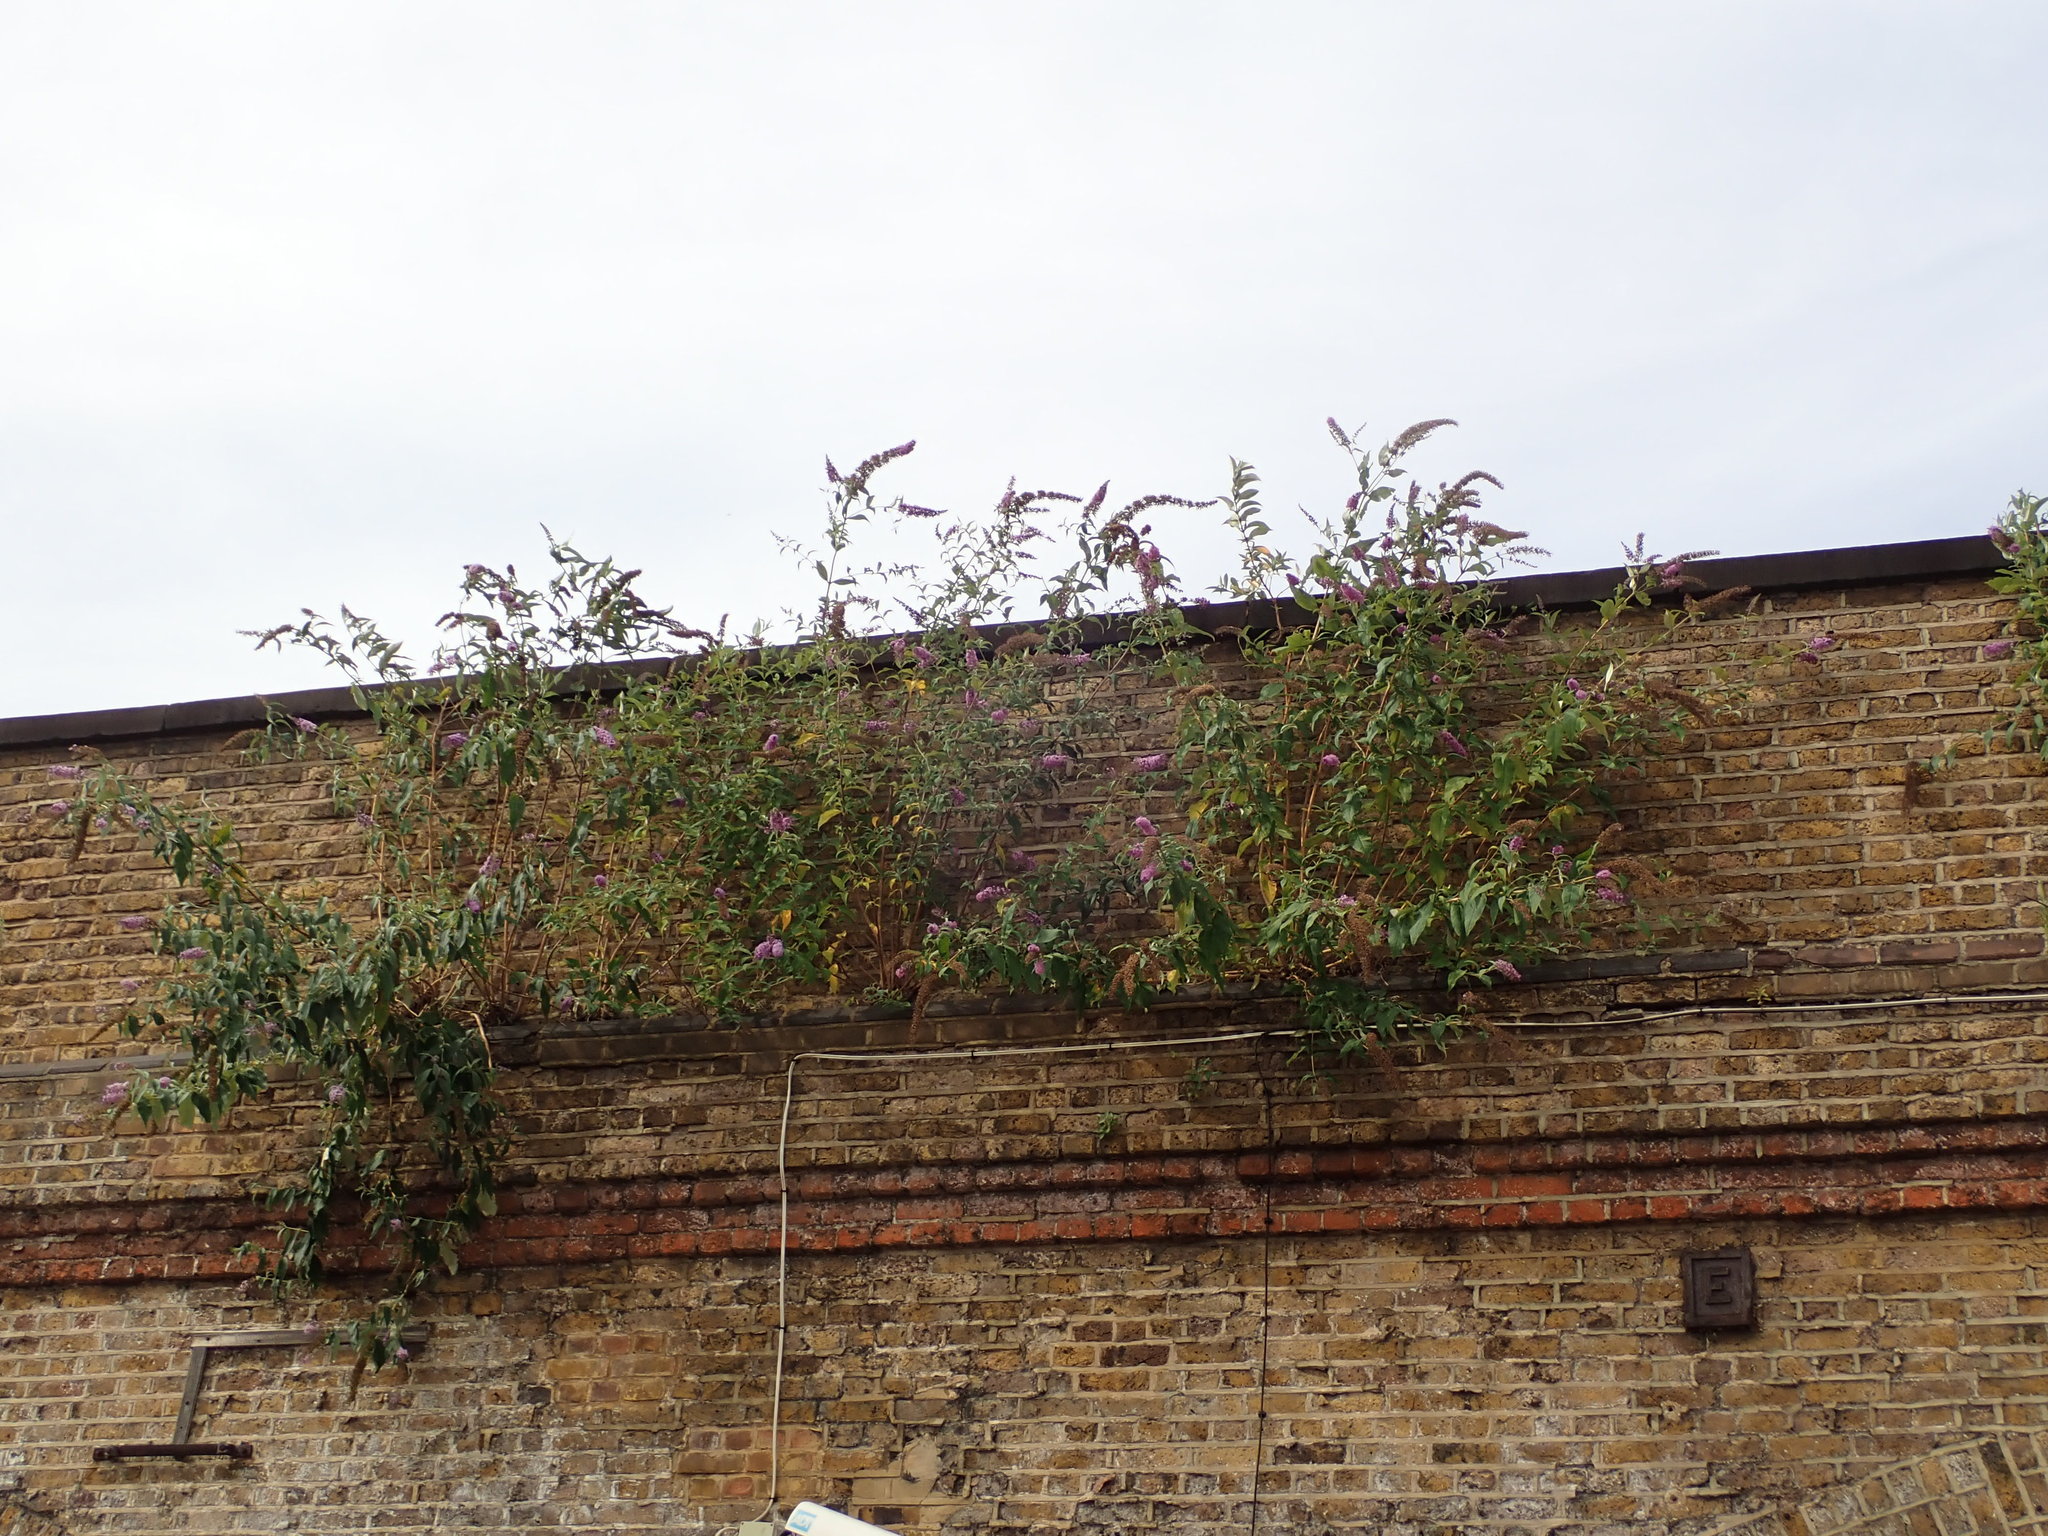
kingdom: Plantae
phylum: Tracheophyta
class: Magnoliopsida
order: Lamiales
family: Scrophulariaceae
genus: Buddleja
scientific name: Buddleja davidii
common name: Butterfly-bush
